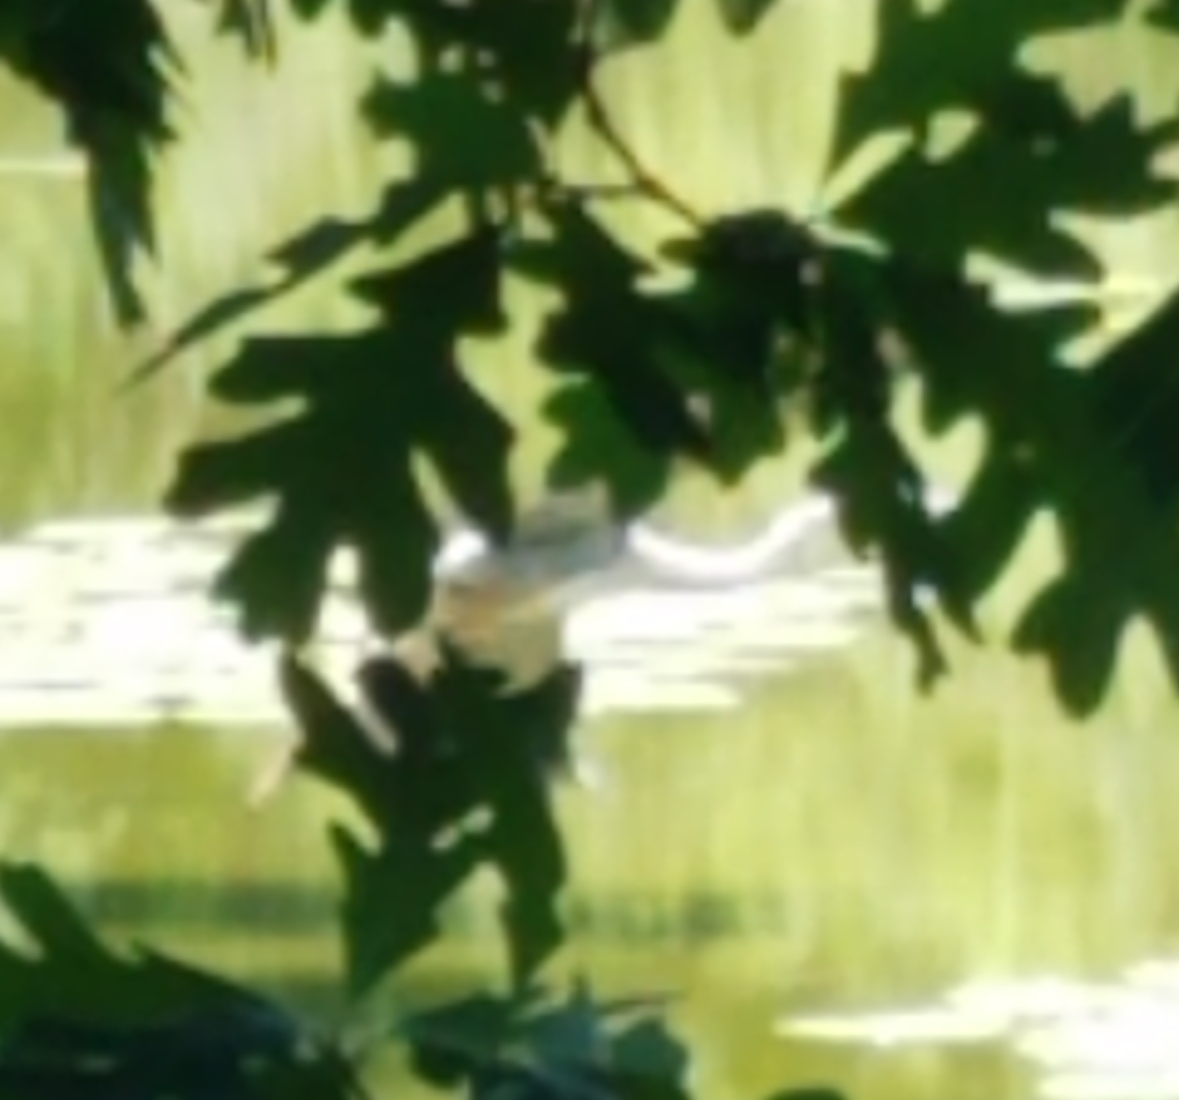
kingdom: Animalia
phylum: Chordata
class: Aves
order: Pelecaniformes
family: Ardeidae
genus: Ardea
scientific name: Ardea herodias
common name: Great blue heron
